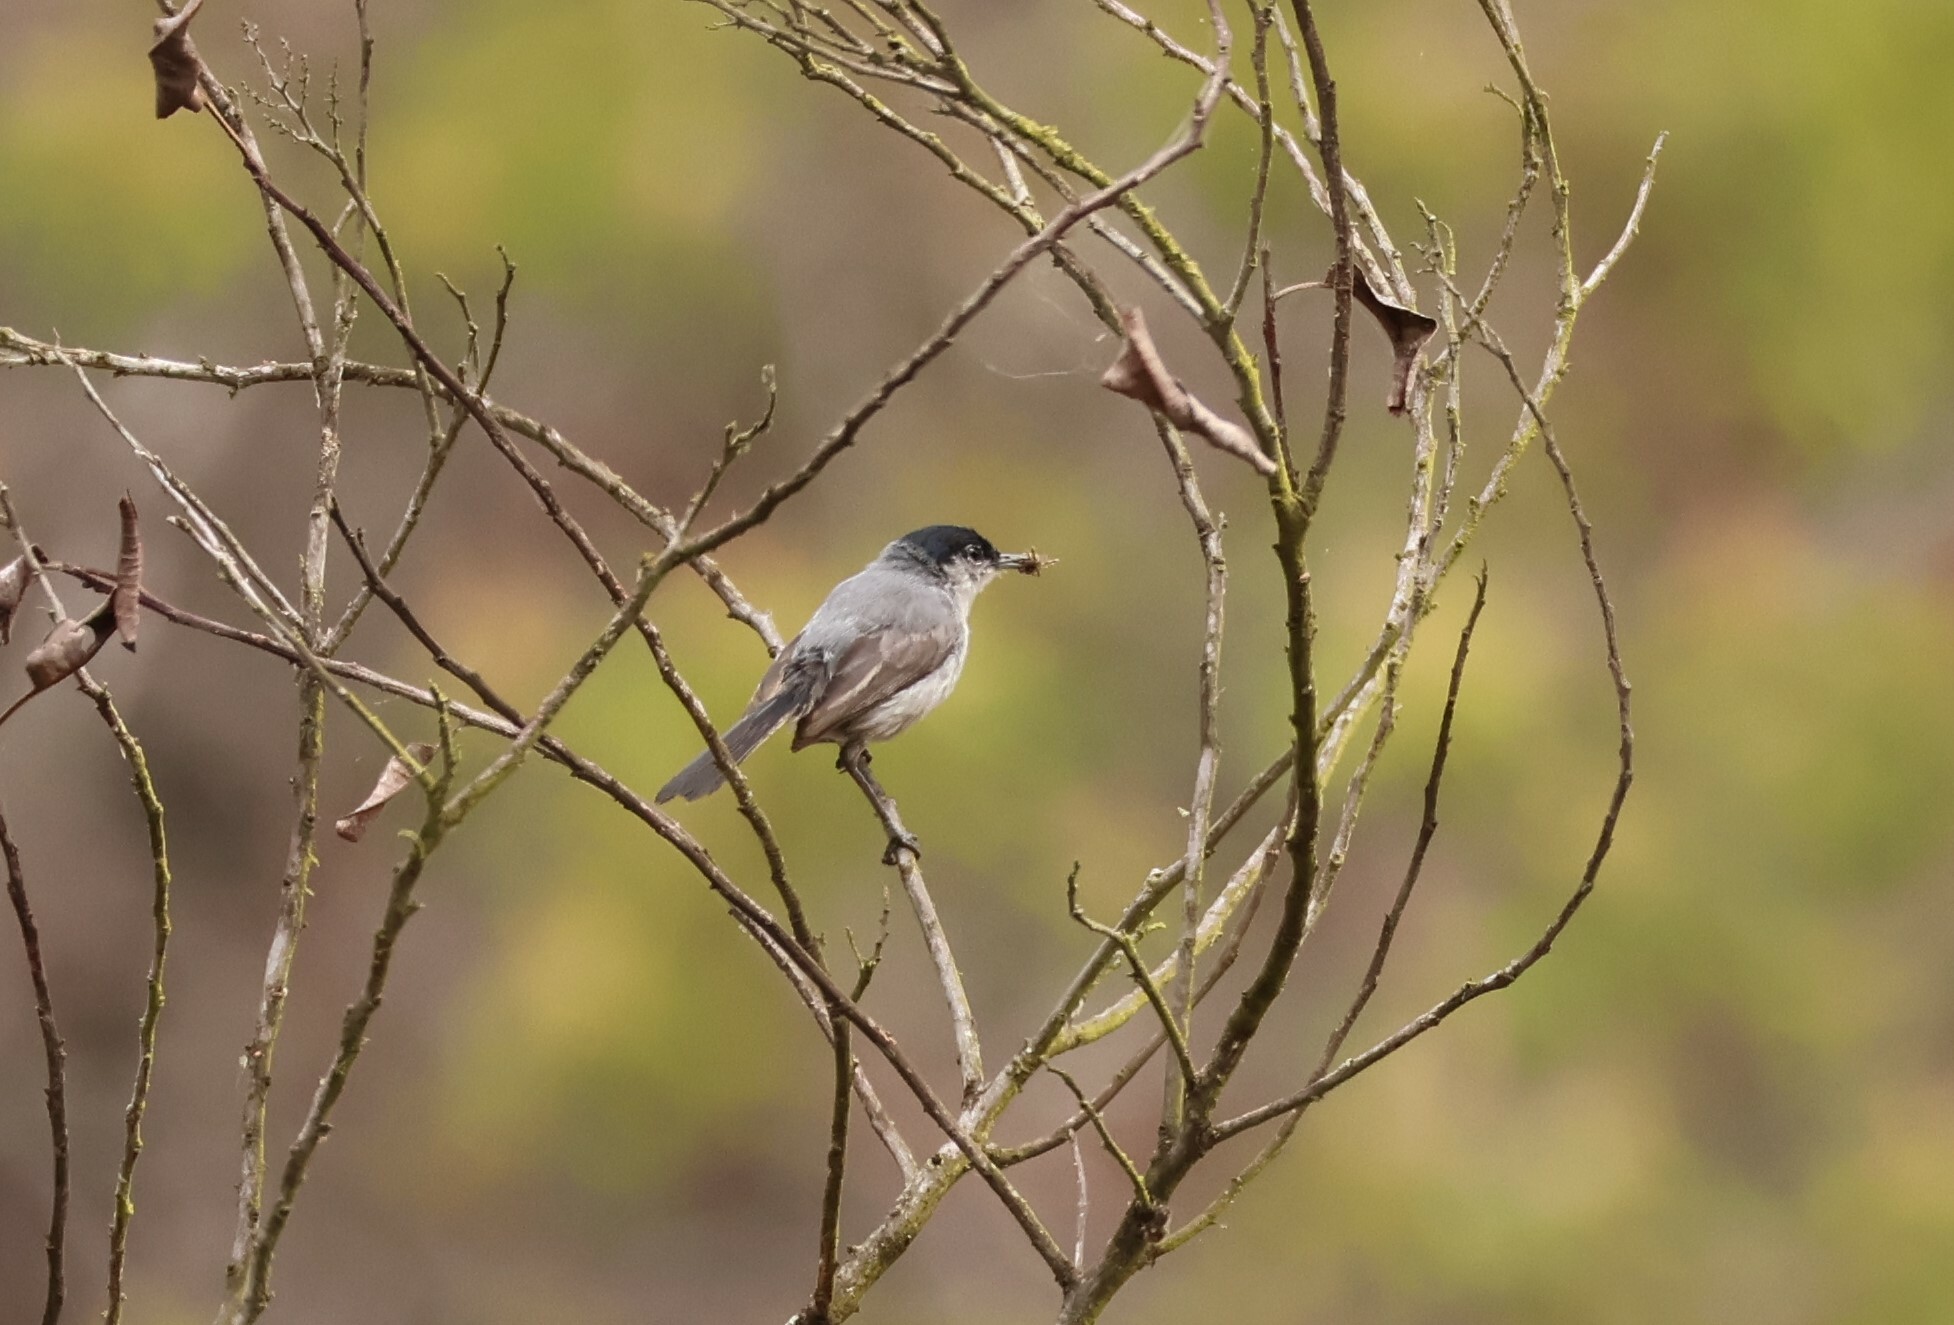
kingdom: Animalia
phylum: Chordata
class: Aves
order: Passeriformes
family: Polioptilidae
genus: Polioptila
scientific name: Polioptila californica
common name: California gnatcatcher
